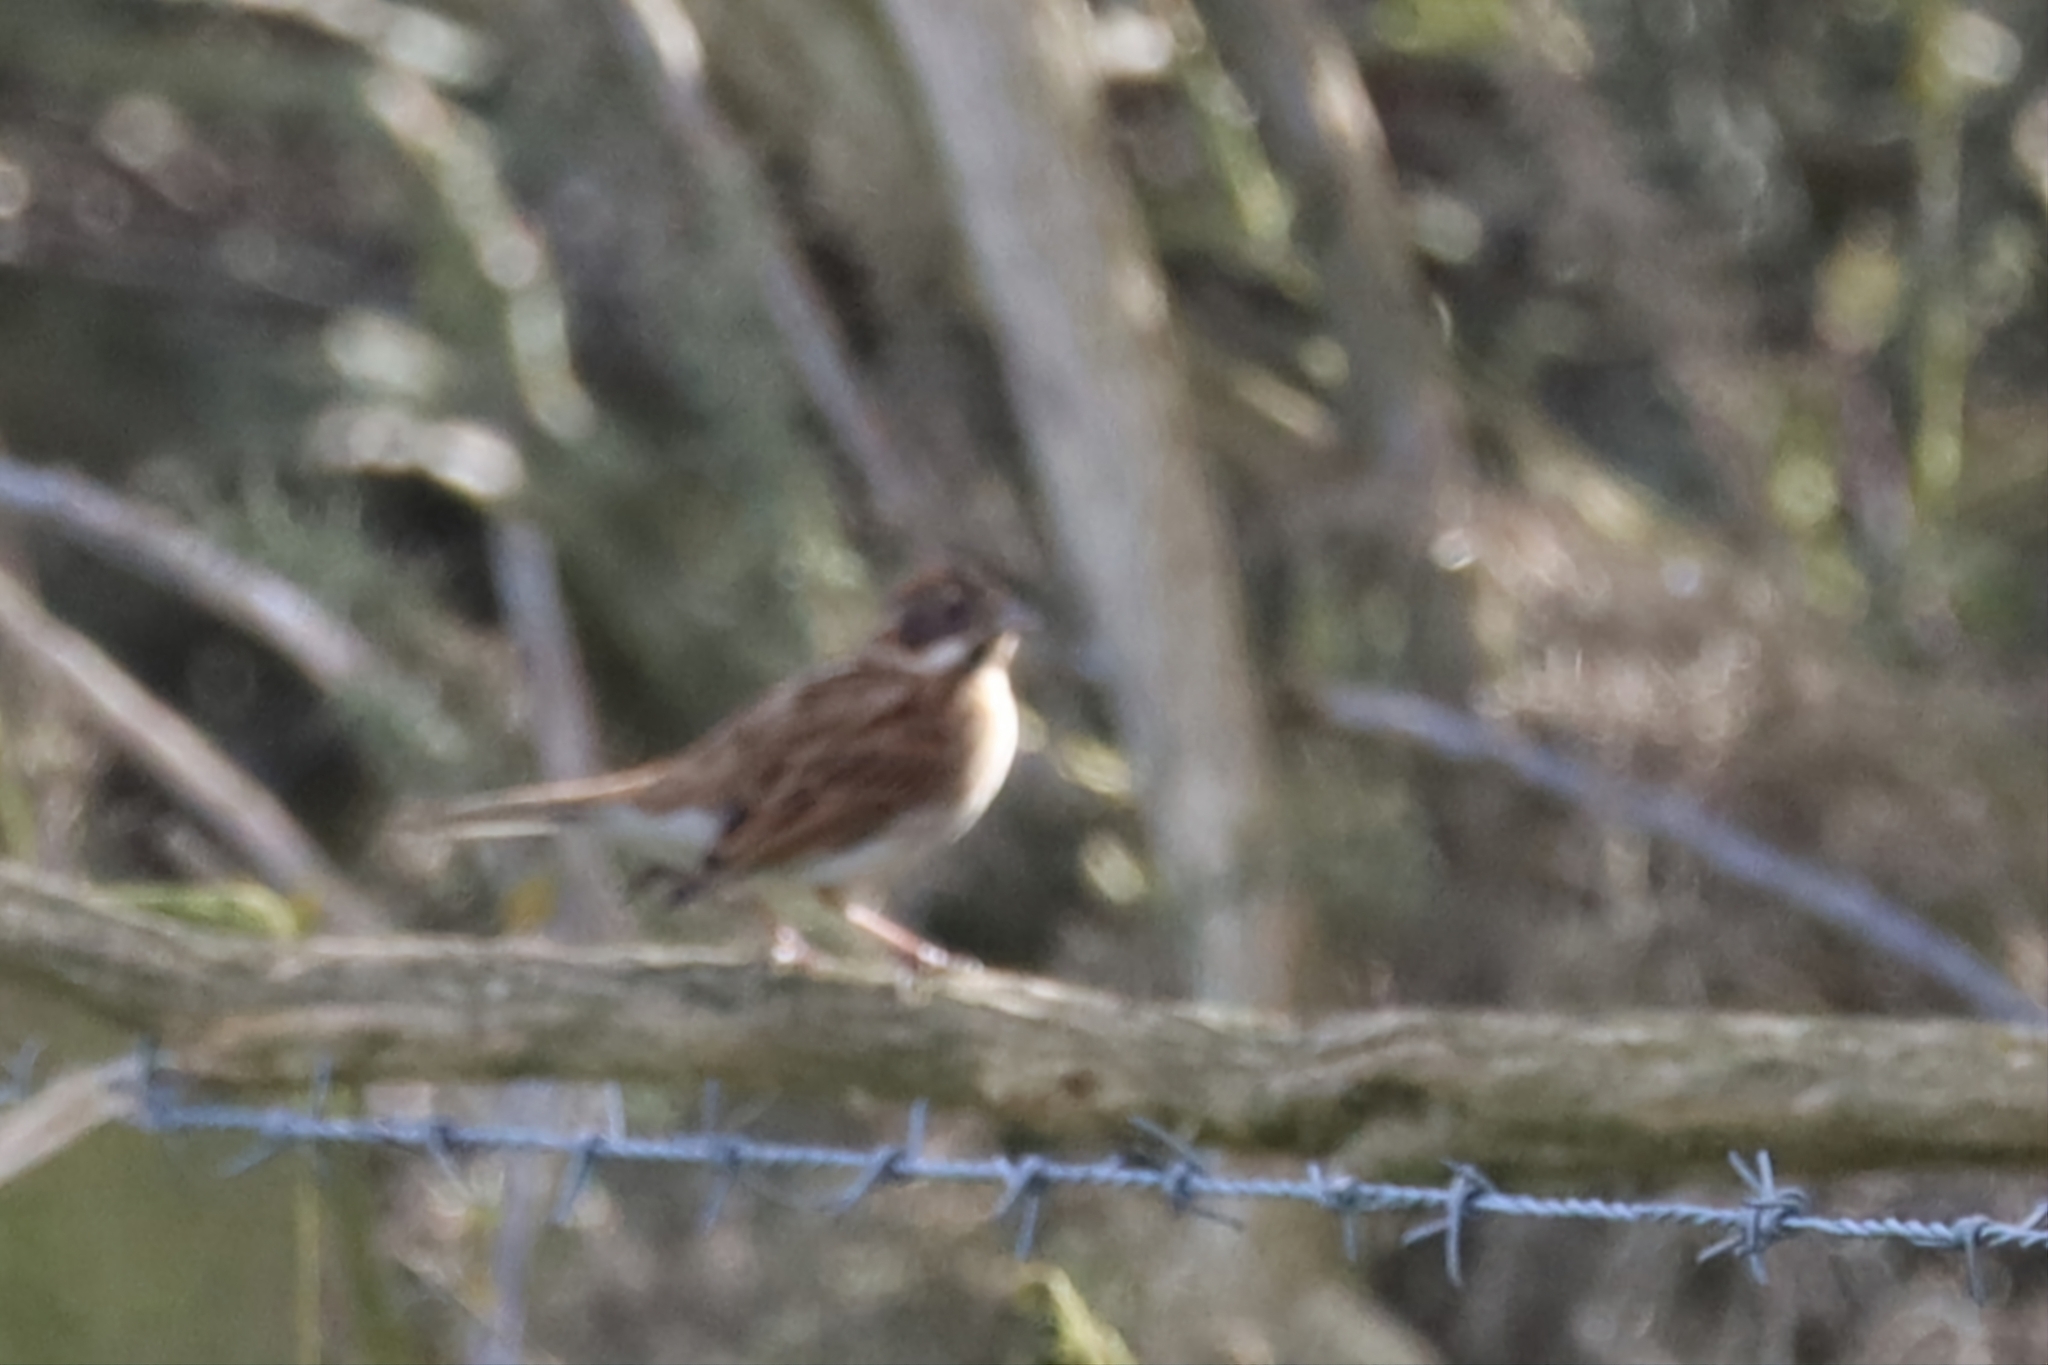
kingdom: Animalia
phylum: Chordata
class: Aves
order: Passeriformes
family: Emberizidae
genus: Emberiza
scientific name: Emberiza schoeniclus
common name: Reed bunting
